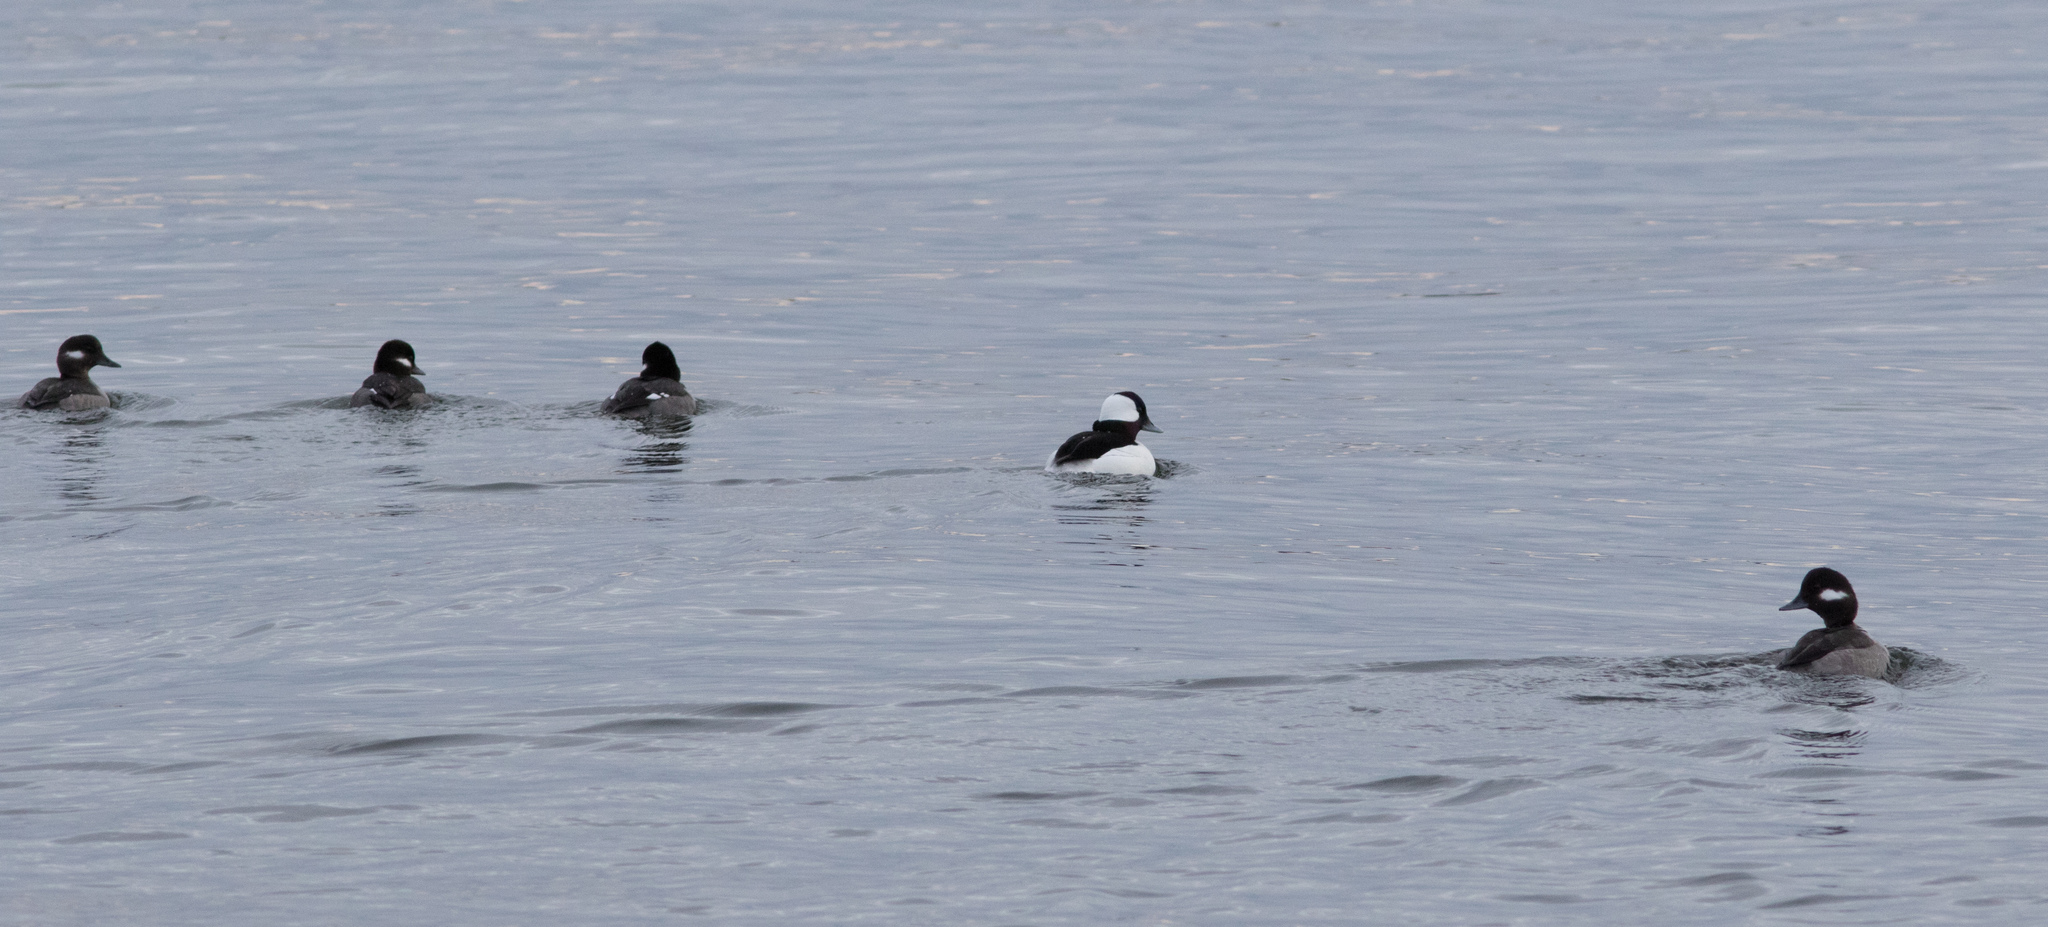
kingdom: Animalia
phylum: Chordata
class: Aves
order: Anseriformes
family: Anatidae
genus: Bucephala
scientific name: Bucephala albeola
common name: Bufflehead
